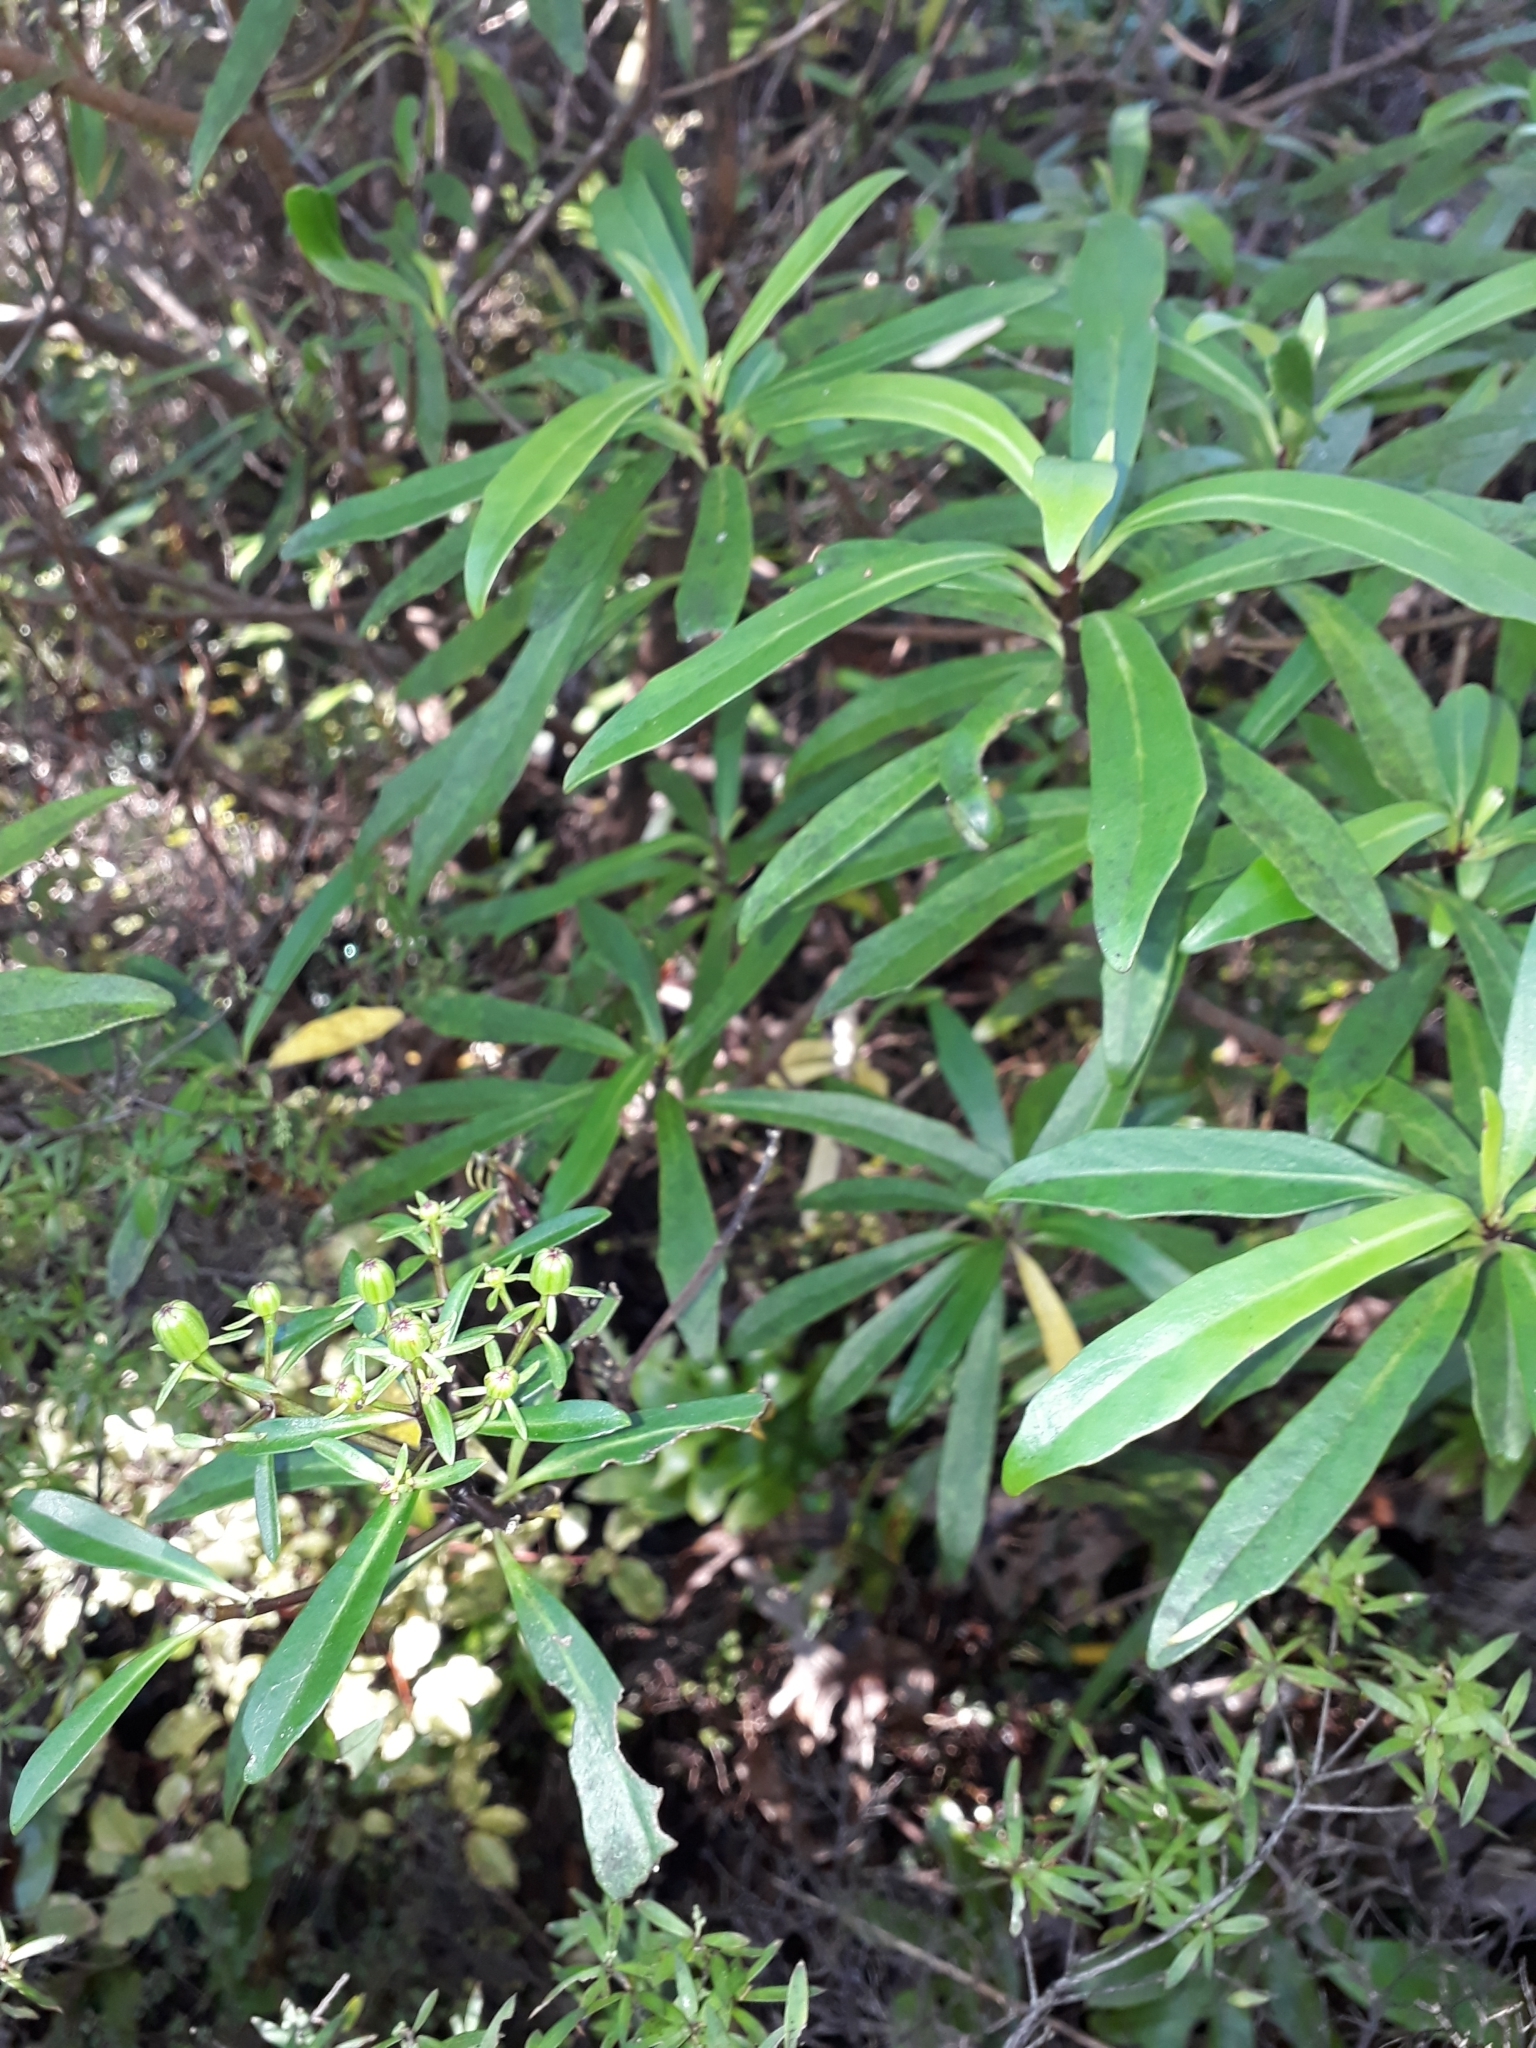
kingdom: Plantae
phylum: Tracheophyta
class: Magnoliopsida
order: Asterales
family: Asteraceae
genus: Brachyglottis
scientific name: Brachyglottis kirkii
